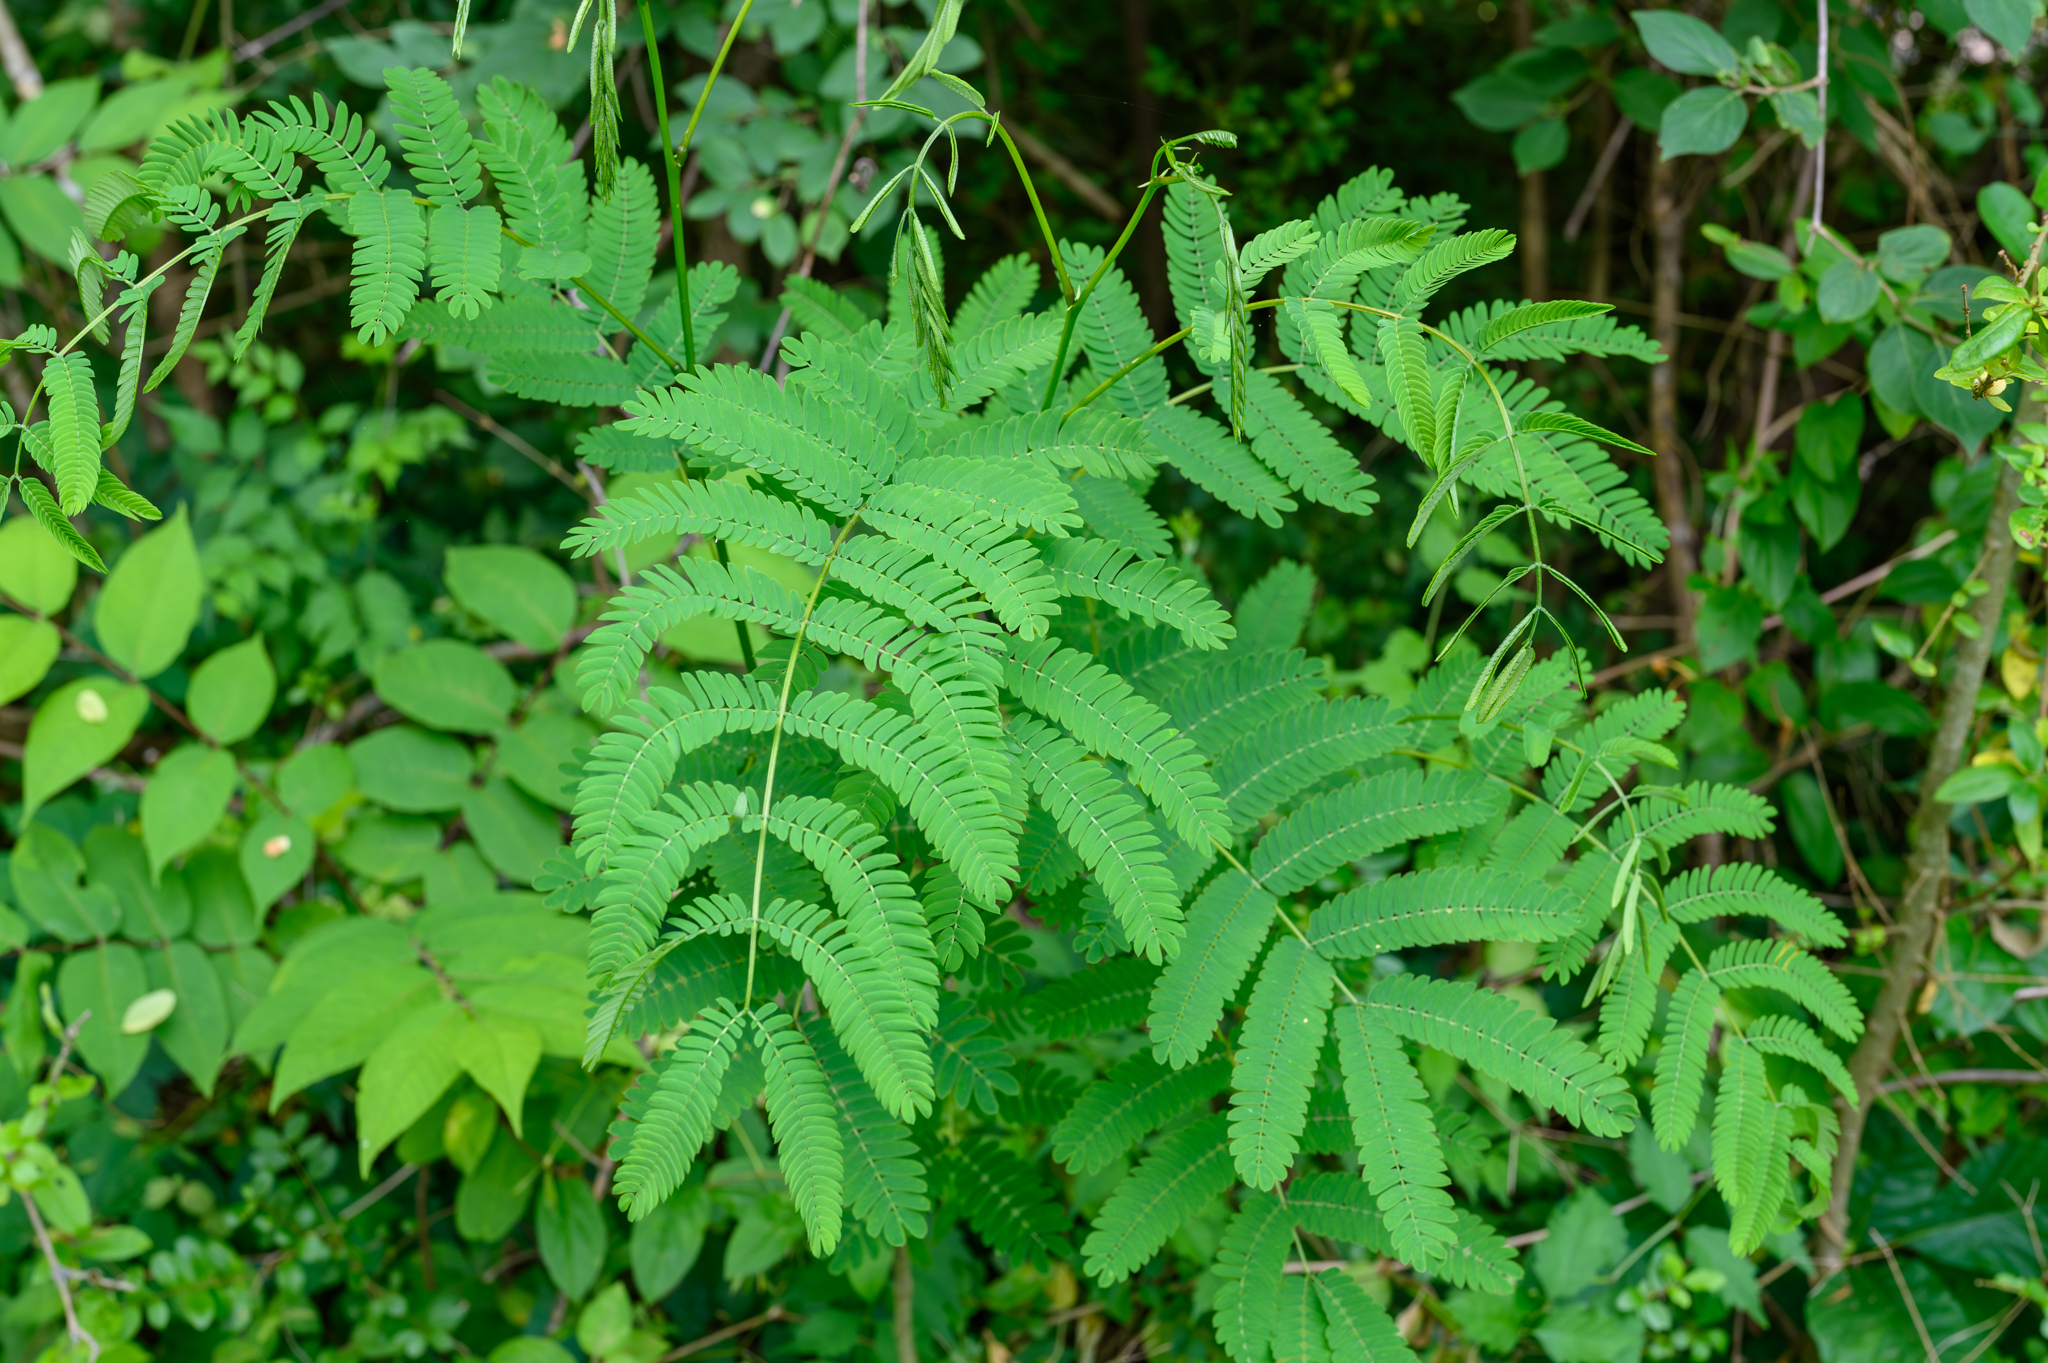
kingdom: Plantae
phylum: Tracheophyta
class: Magnoliopsida
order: Fabales
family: Fabaceae
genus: Albizia
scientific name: Albizia julibrissin
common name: Silktree
